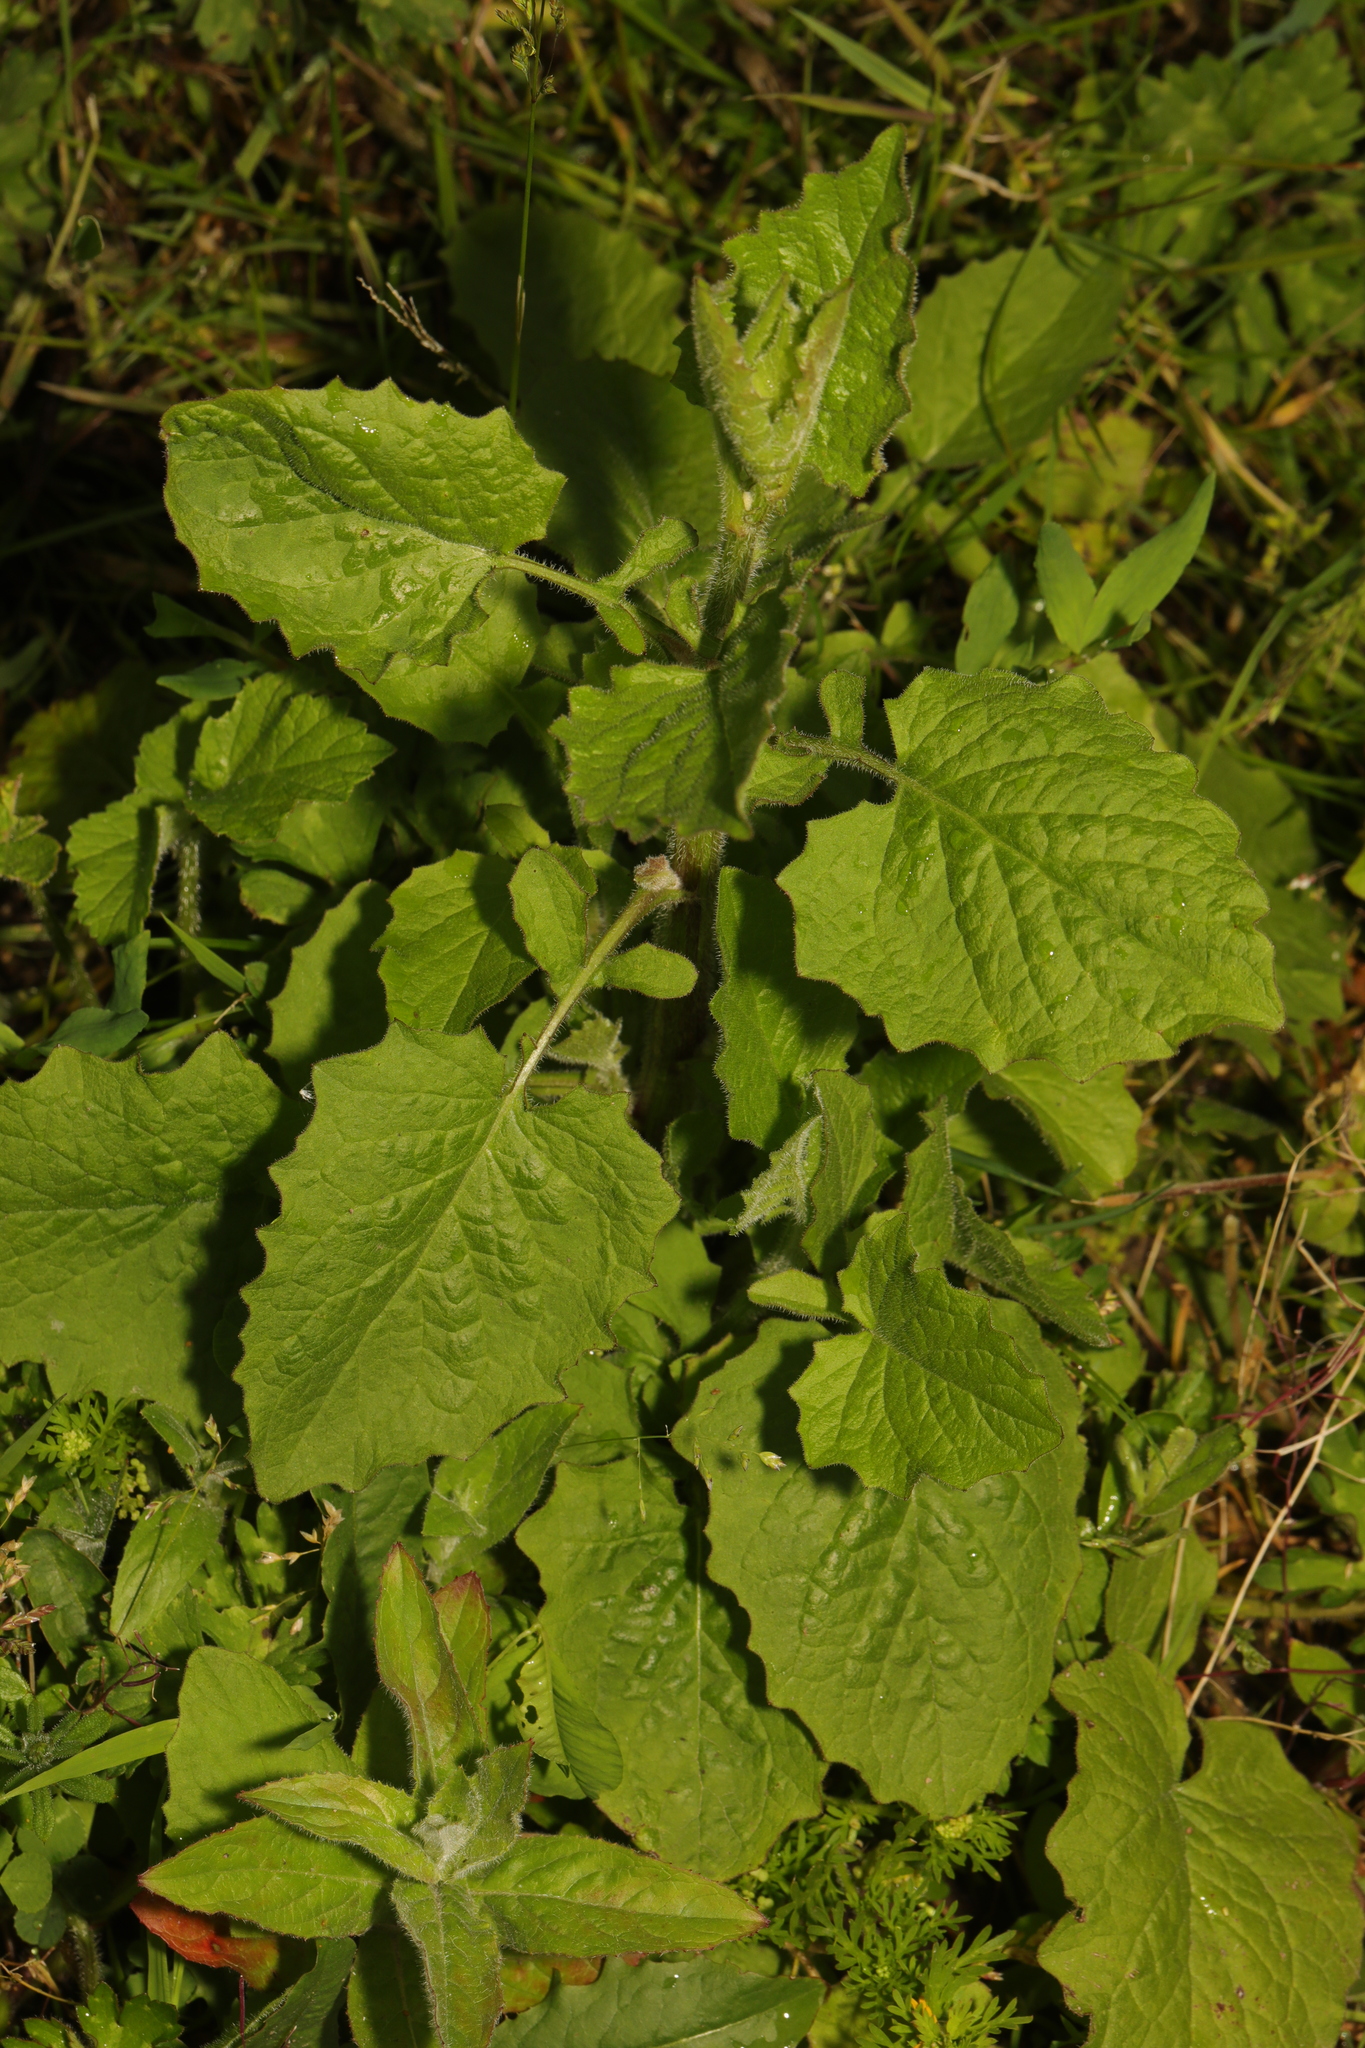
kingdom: Plantae
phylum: Tracheophyta
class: Magnoliopsida
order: Asterales
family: Asteraceae
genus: Lapsana
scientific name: Lapsana communis
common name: Nipplewort
